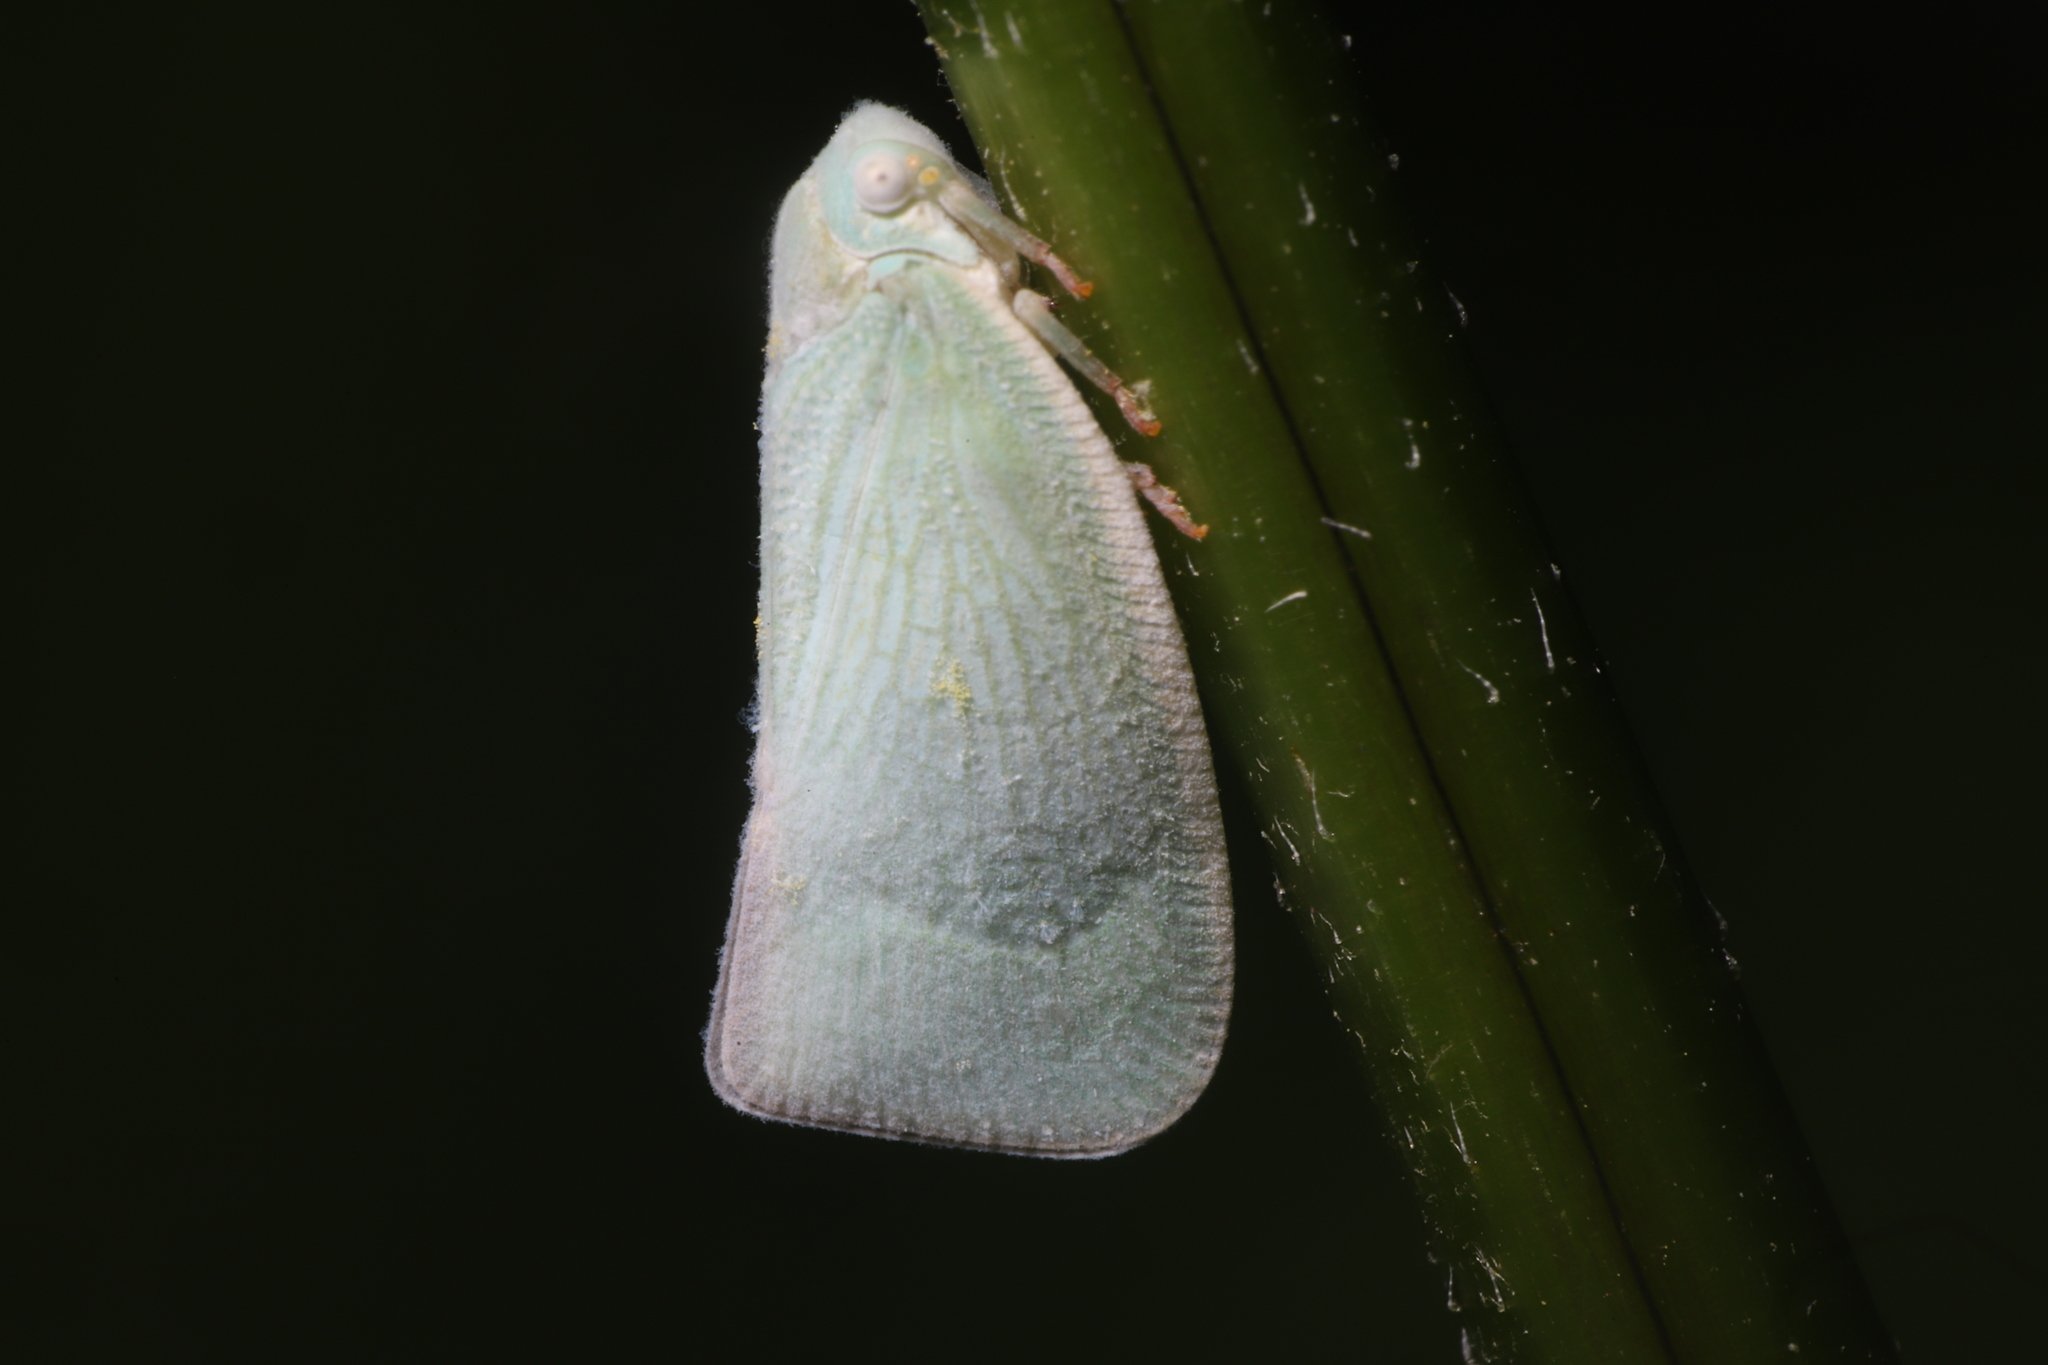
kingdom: Animalia
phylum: Arthropoda
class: Insecta
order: Hemiptera
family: Flatidae
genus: Flatormenis
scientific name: Flatormenis proxima
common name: Northern flatid planthopper
